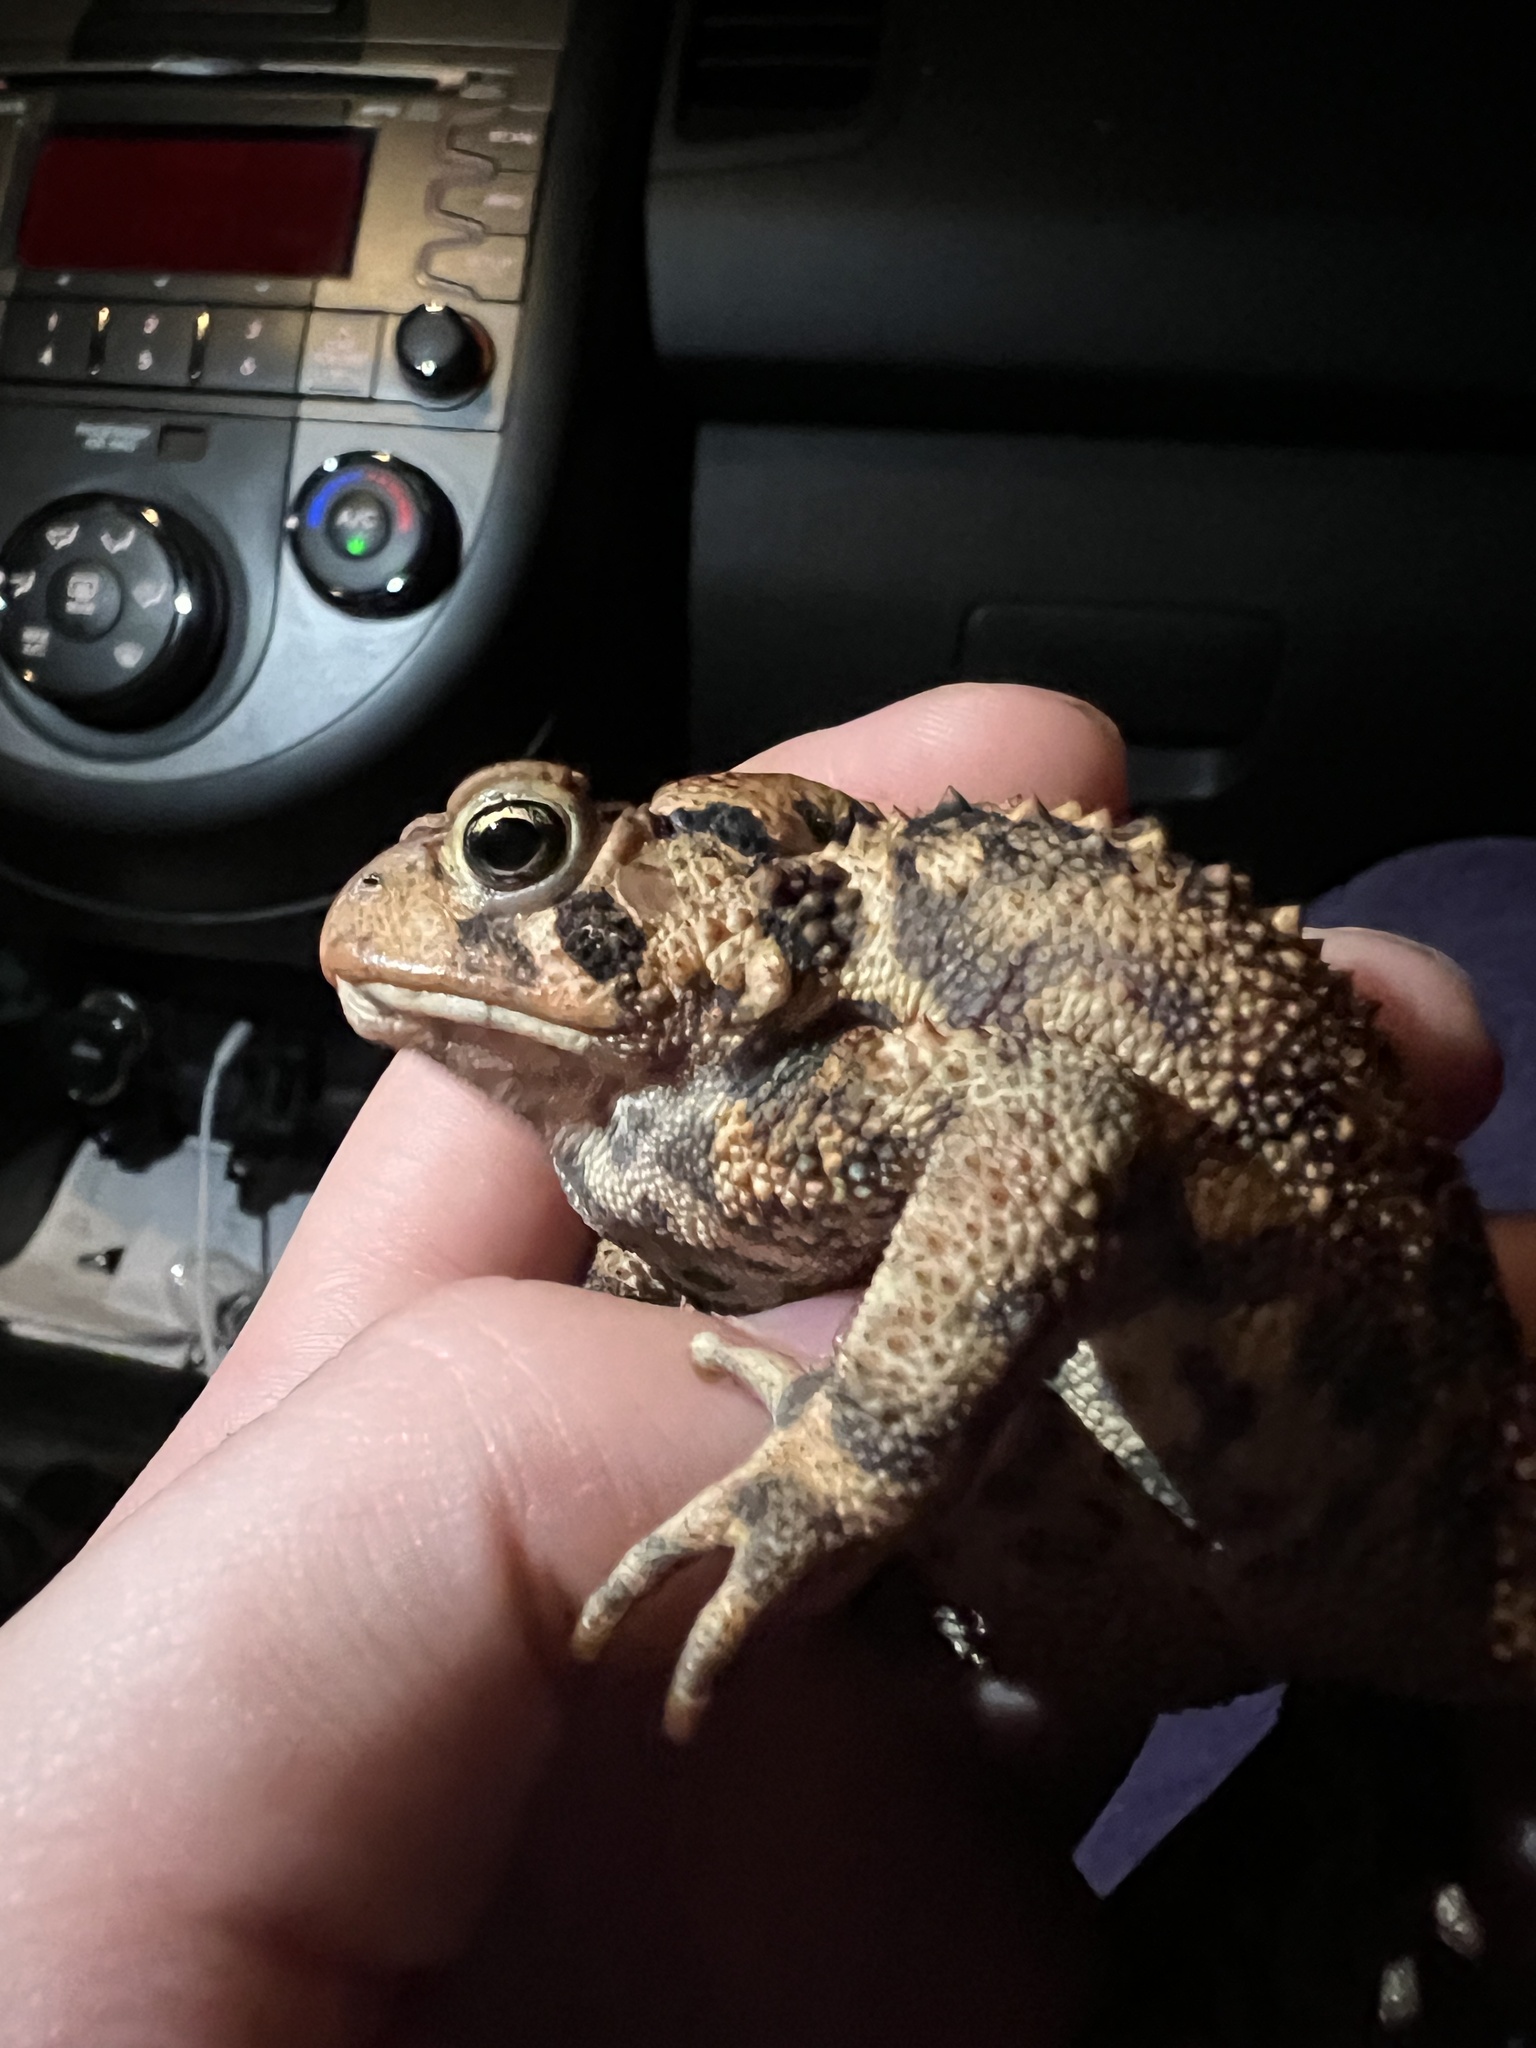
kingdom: Animalia
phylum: Chordata
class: Amphibia
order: Anura
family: Bufonidae
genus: Anaxyrus
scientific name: Anaxyrus americanus
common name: American toad
